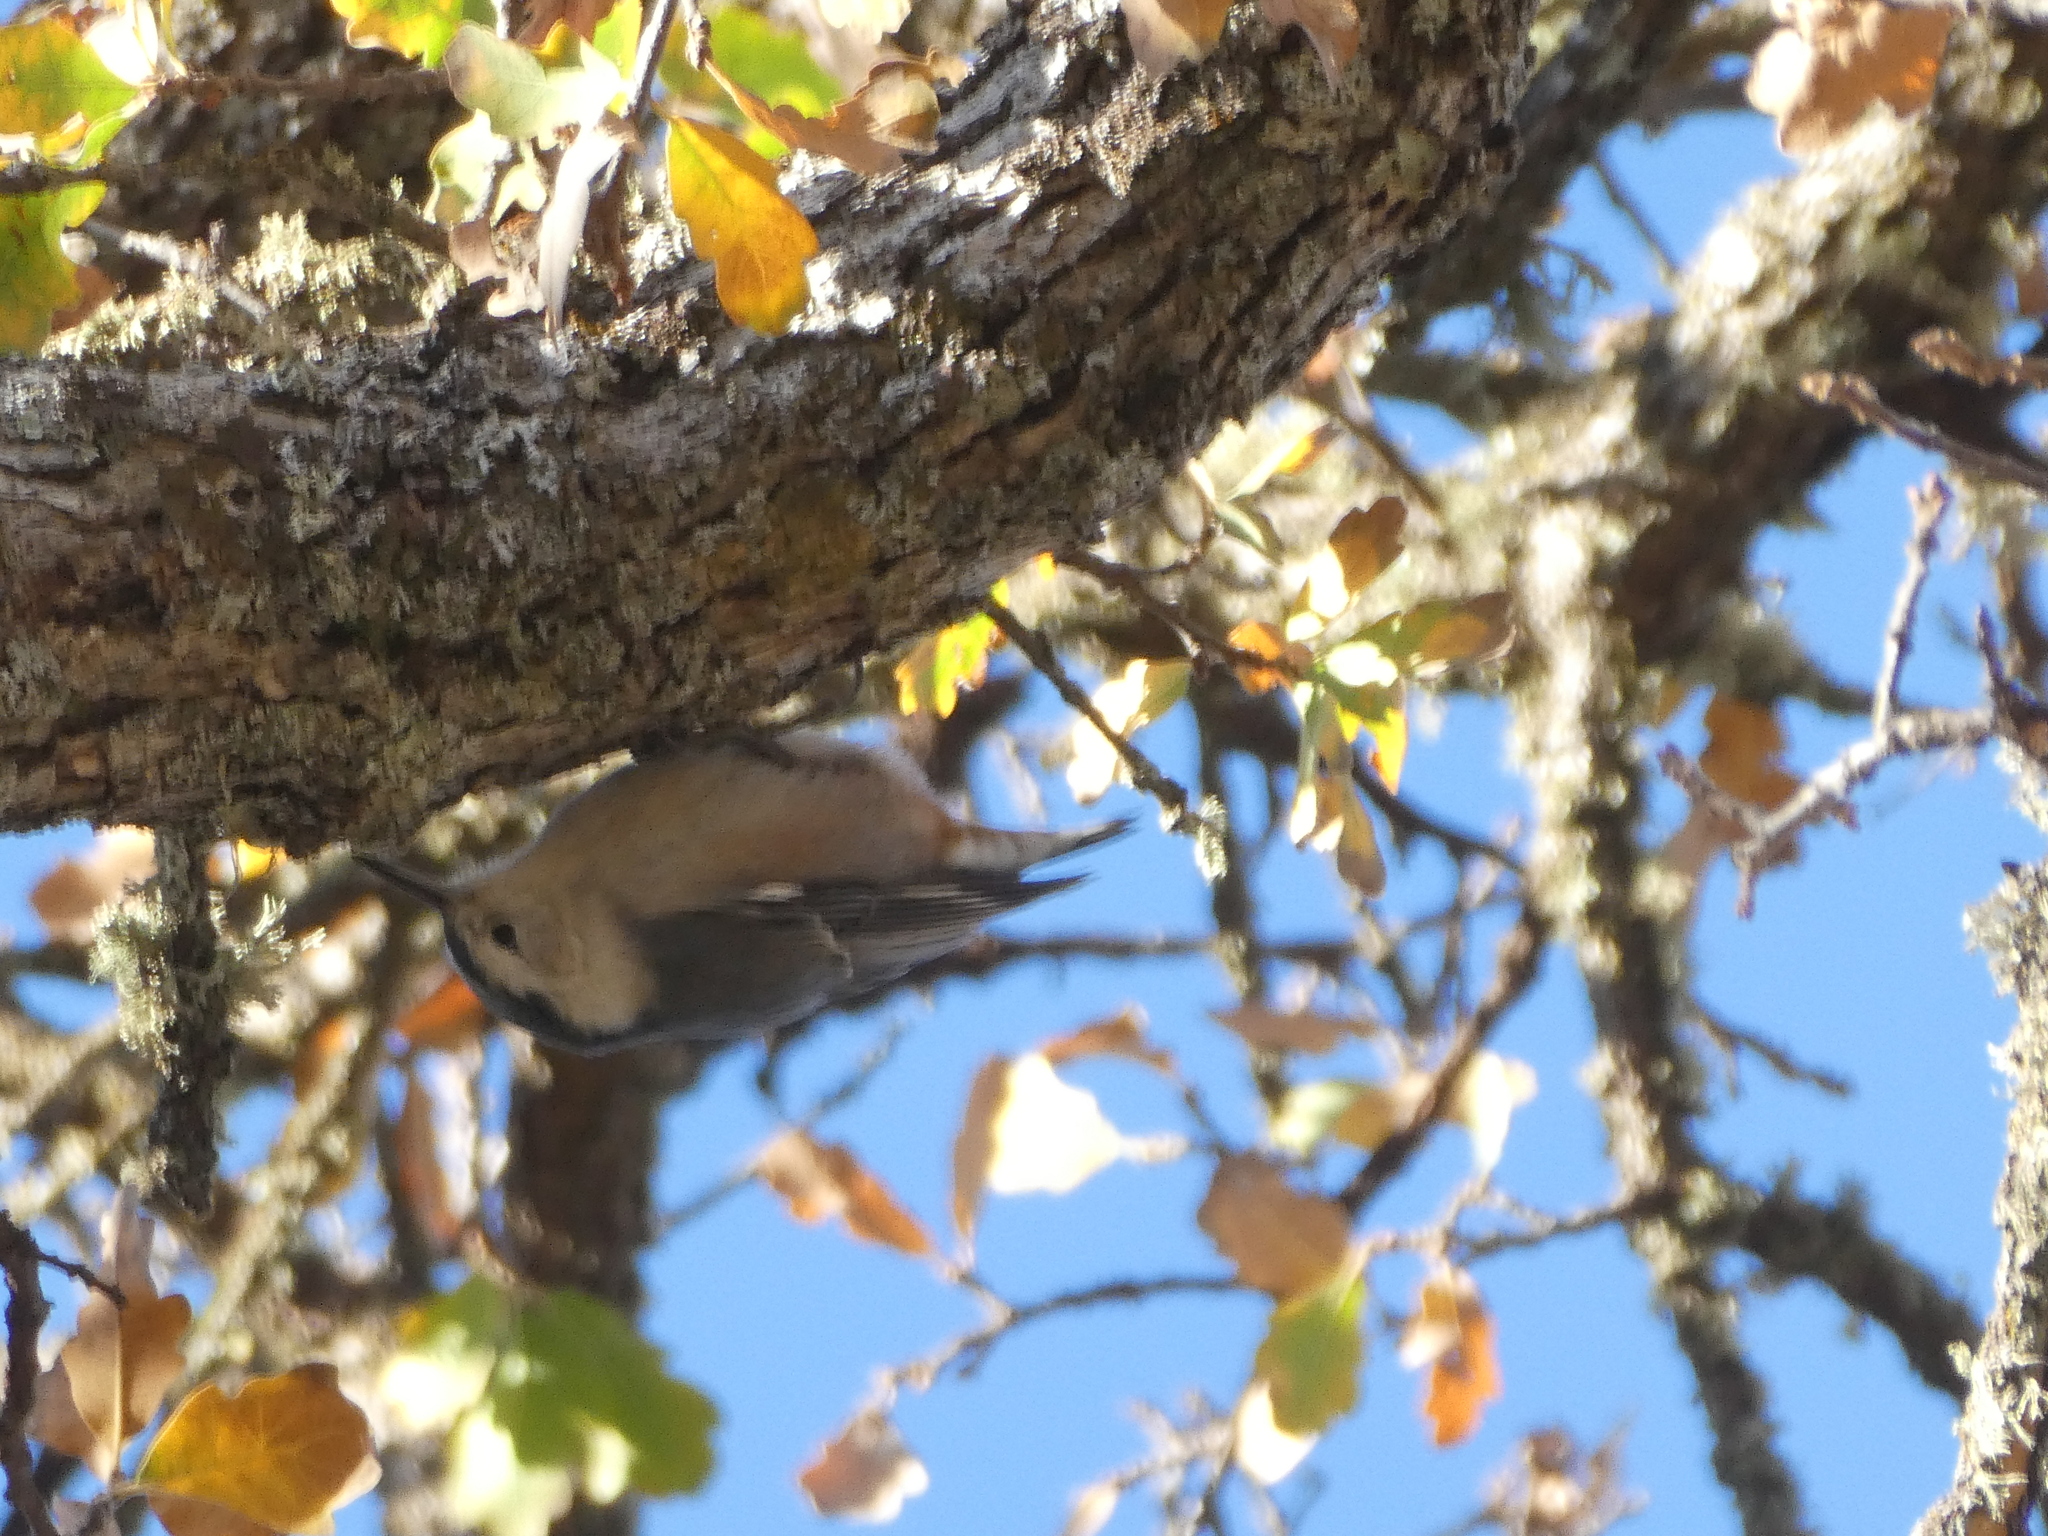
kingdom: Animalia
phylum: Chordata
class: Aves
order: Passeriformes
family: Sittidae
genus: Sitta
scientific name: Sitta carolinensis
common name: White-breasted nuthatch
